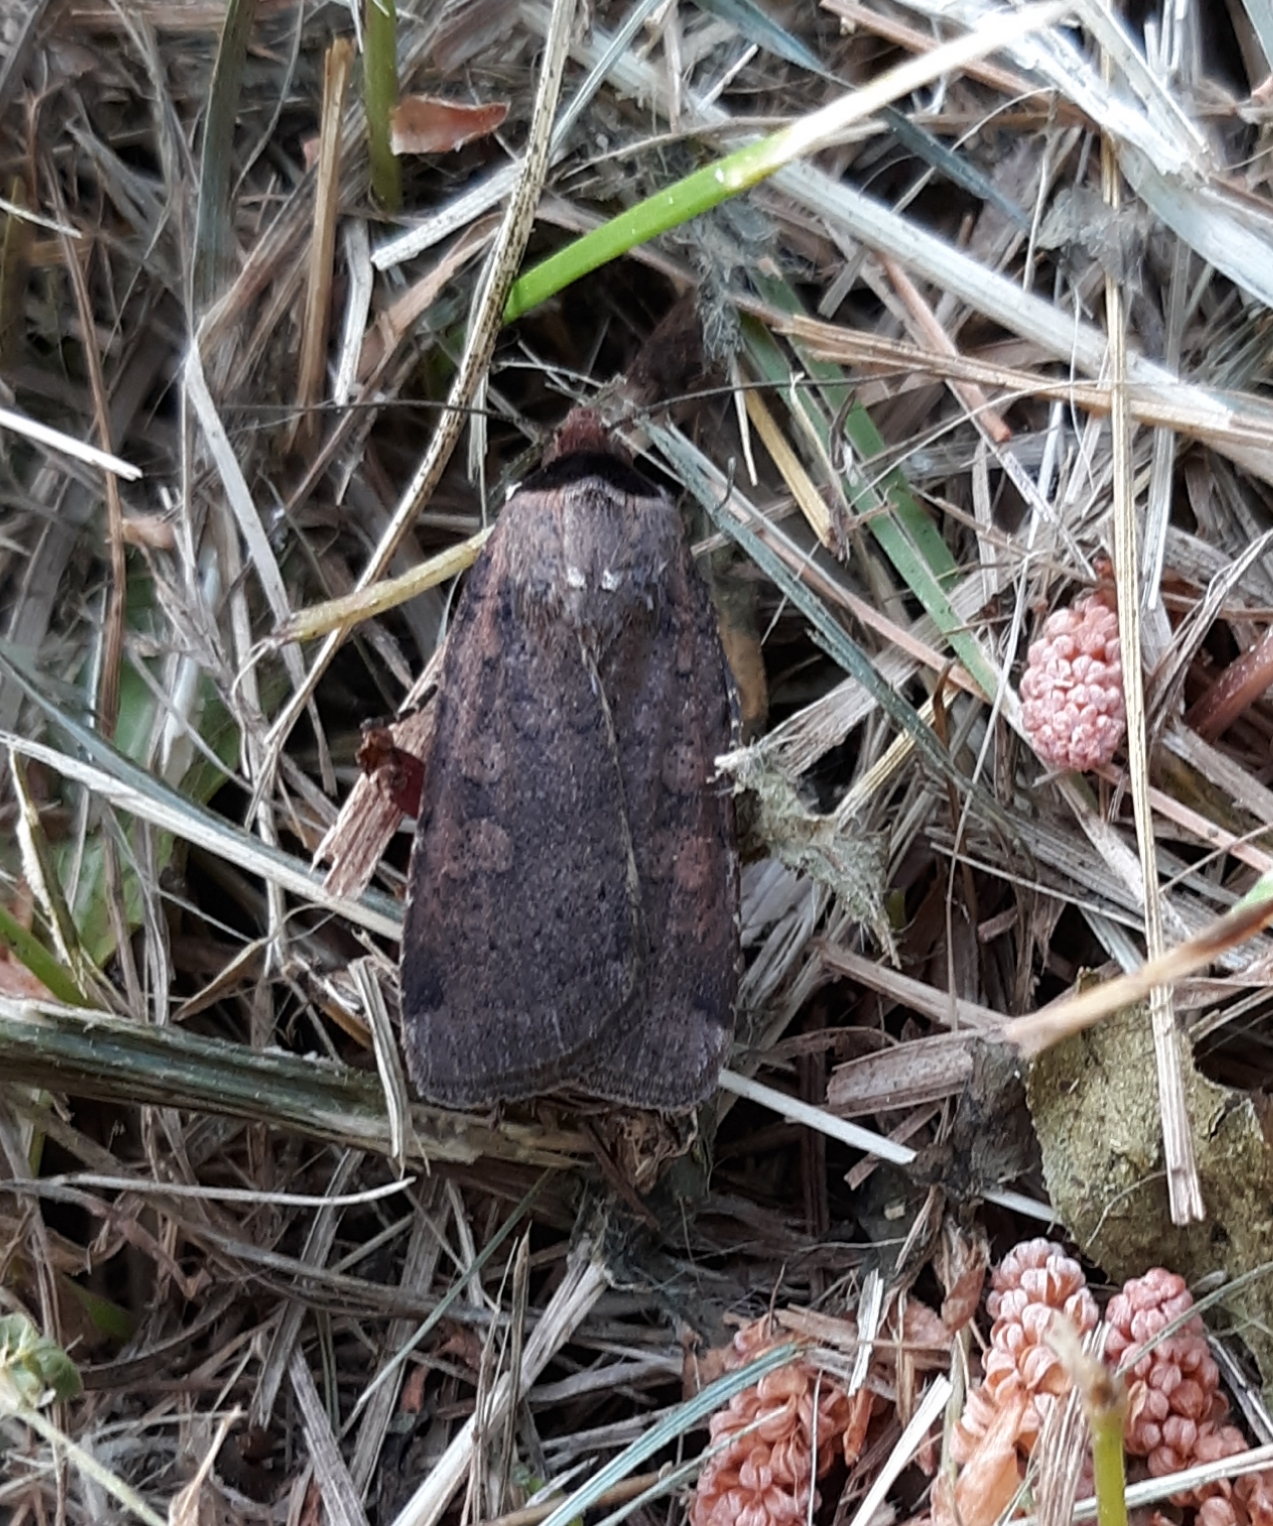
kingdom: Animalia
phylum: Arthropoda
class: Insecta
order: Lepidoptera
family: Noctuidae
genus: Protolampra
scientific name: Protolampra brunneicollis
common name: Brown-collared dart
